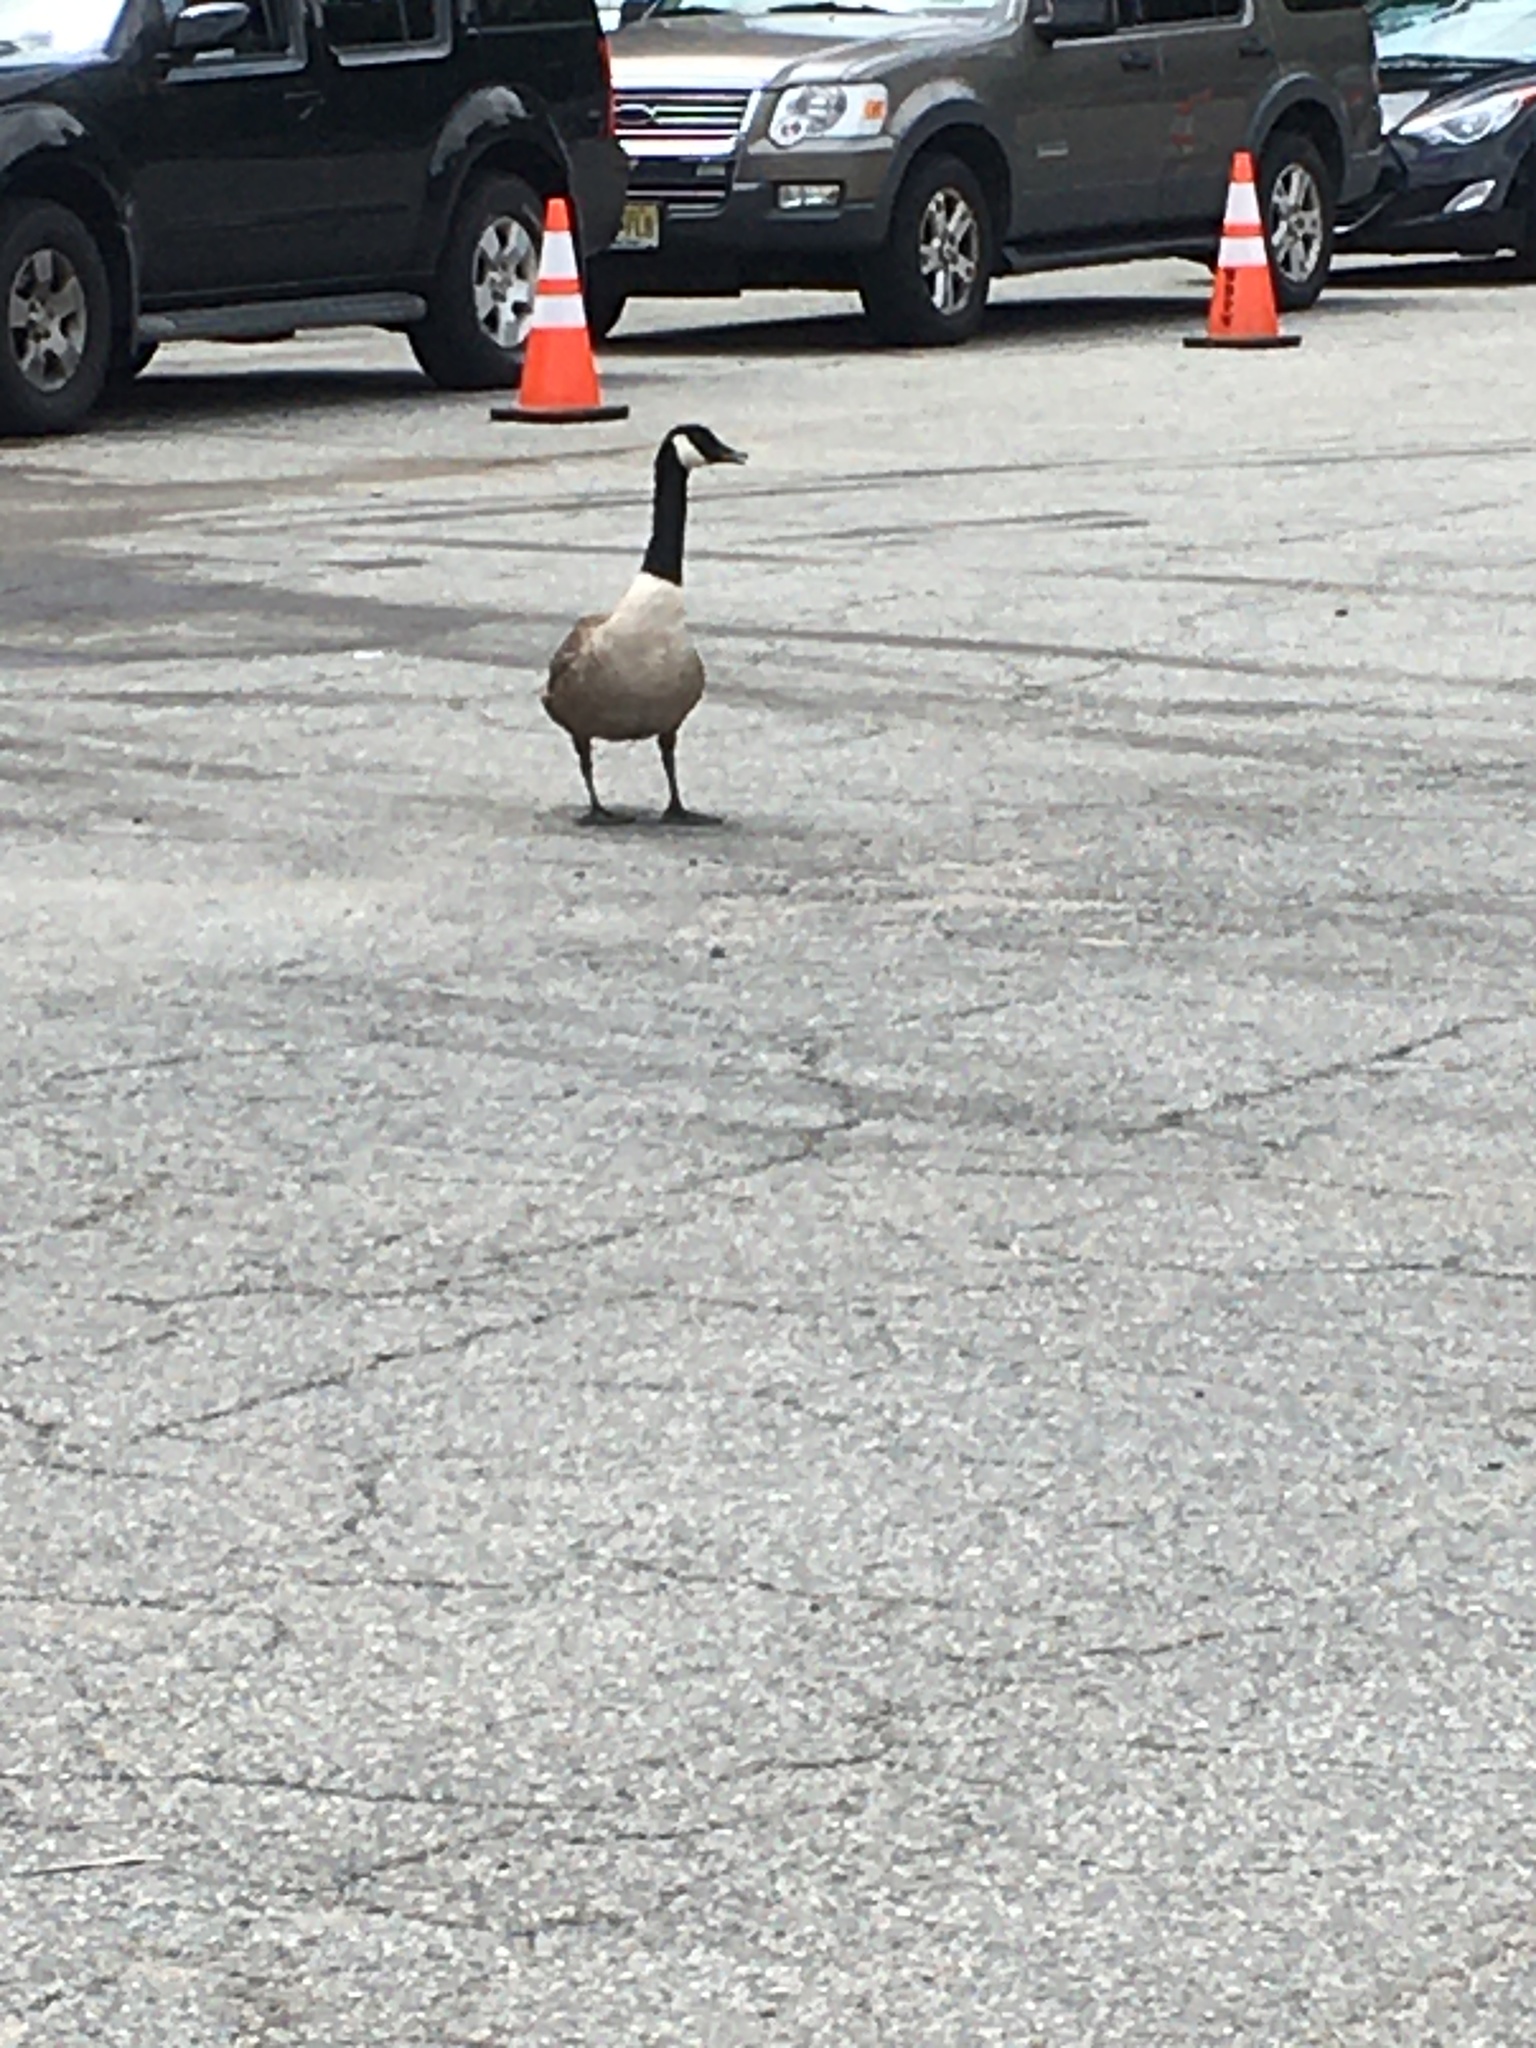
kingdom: Animalia
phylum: Chordata
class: Aves
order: Anseriformes
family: Anatidae
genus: Branta
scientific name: Branta canadensis
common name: Canada goose
